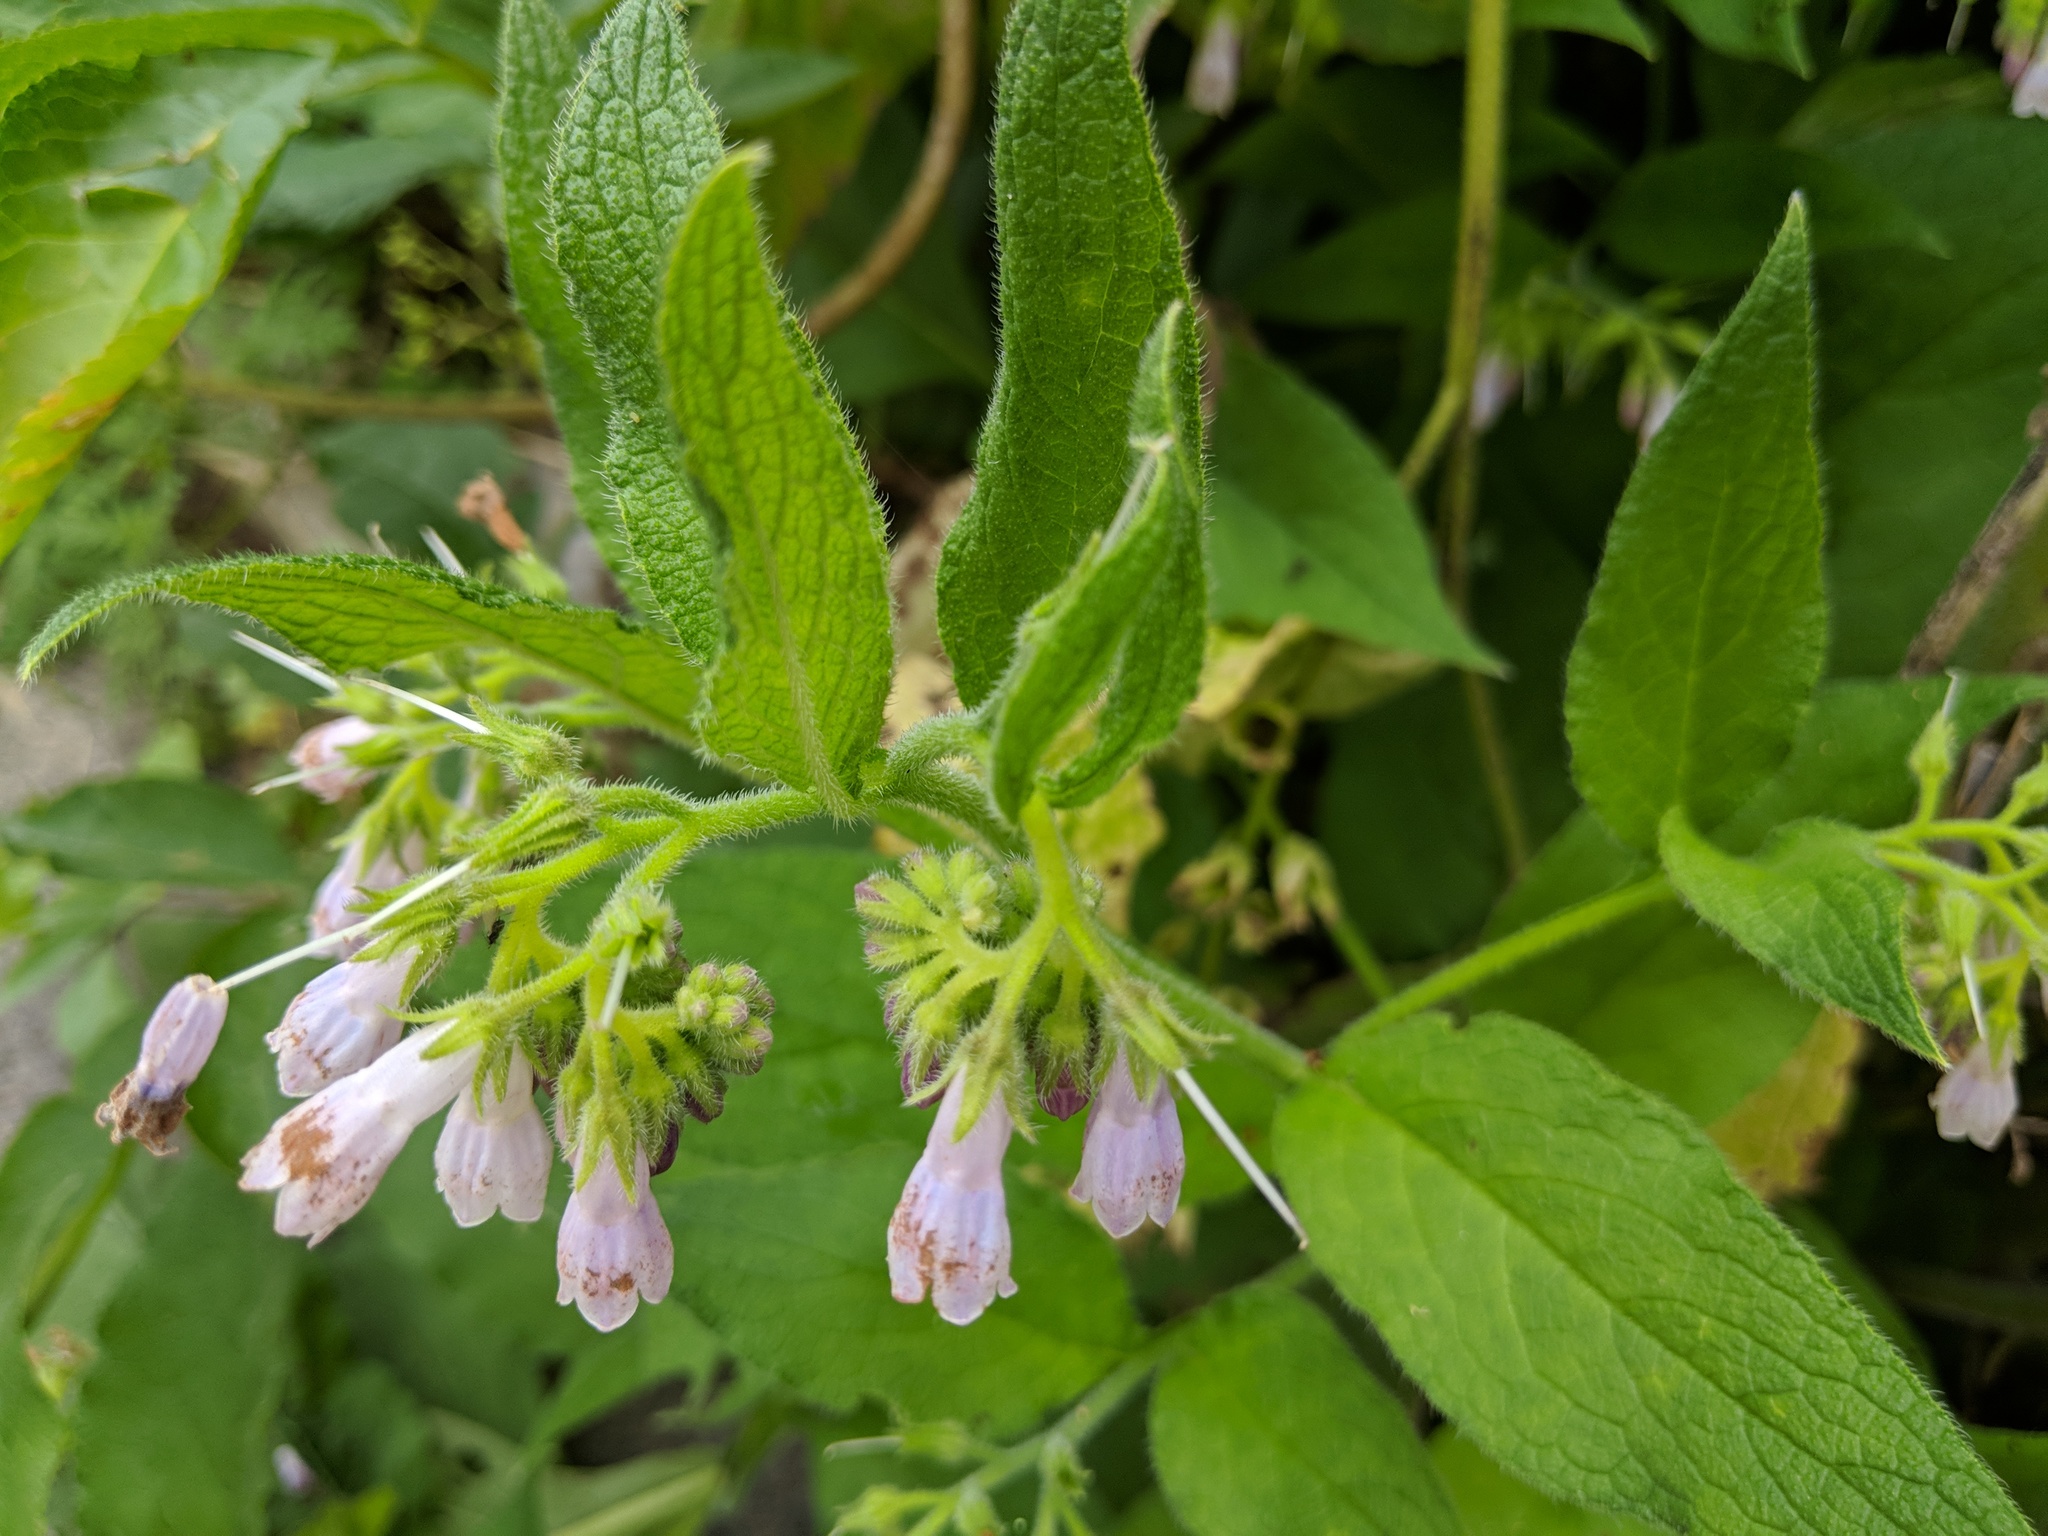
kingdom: Plantae
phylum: Tracheophyta
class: Magnoliopsida
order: Boraginales
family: Boraginaceae
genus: Symphytum
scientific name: Symphytum uplandicum
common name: Russian comfrey
